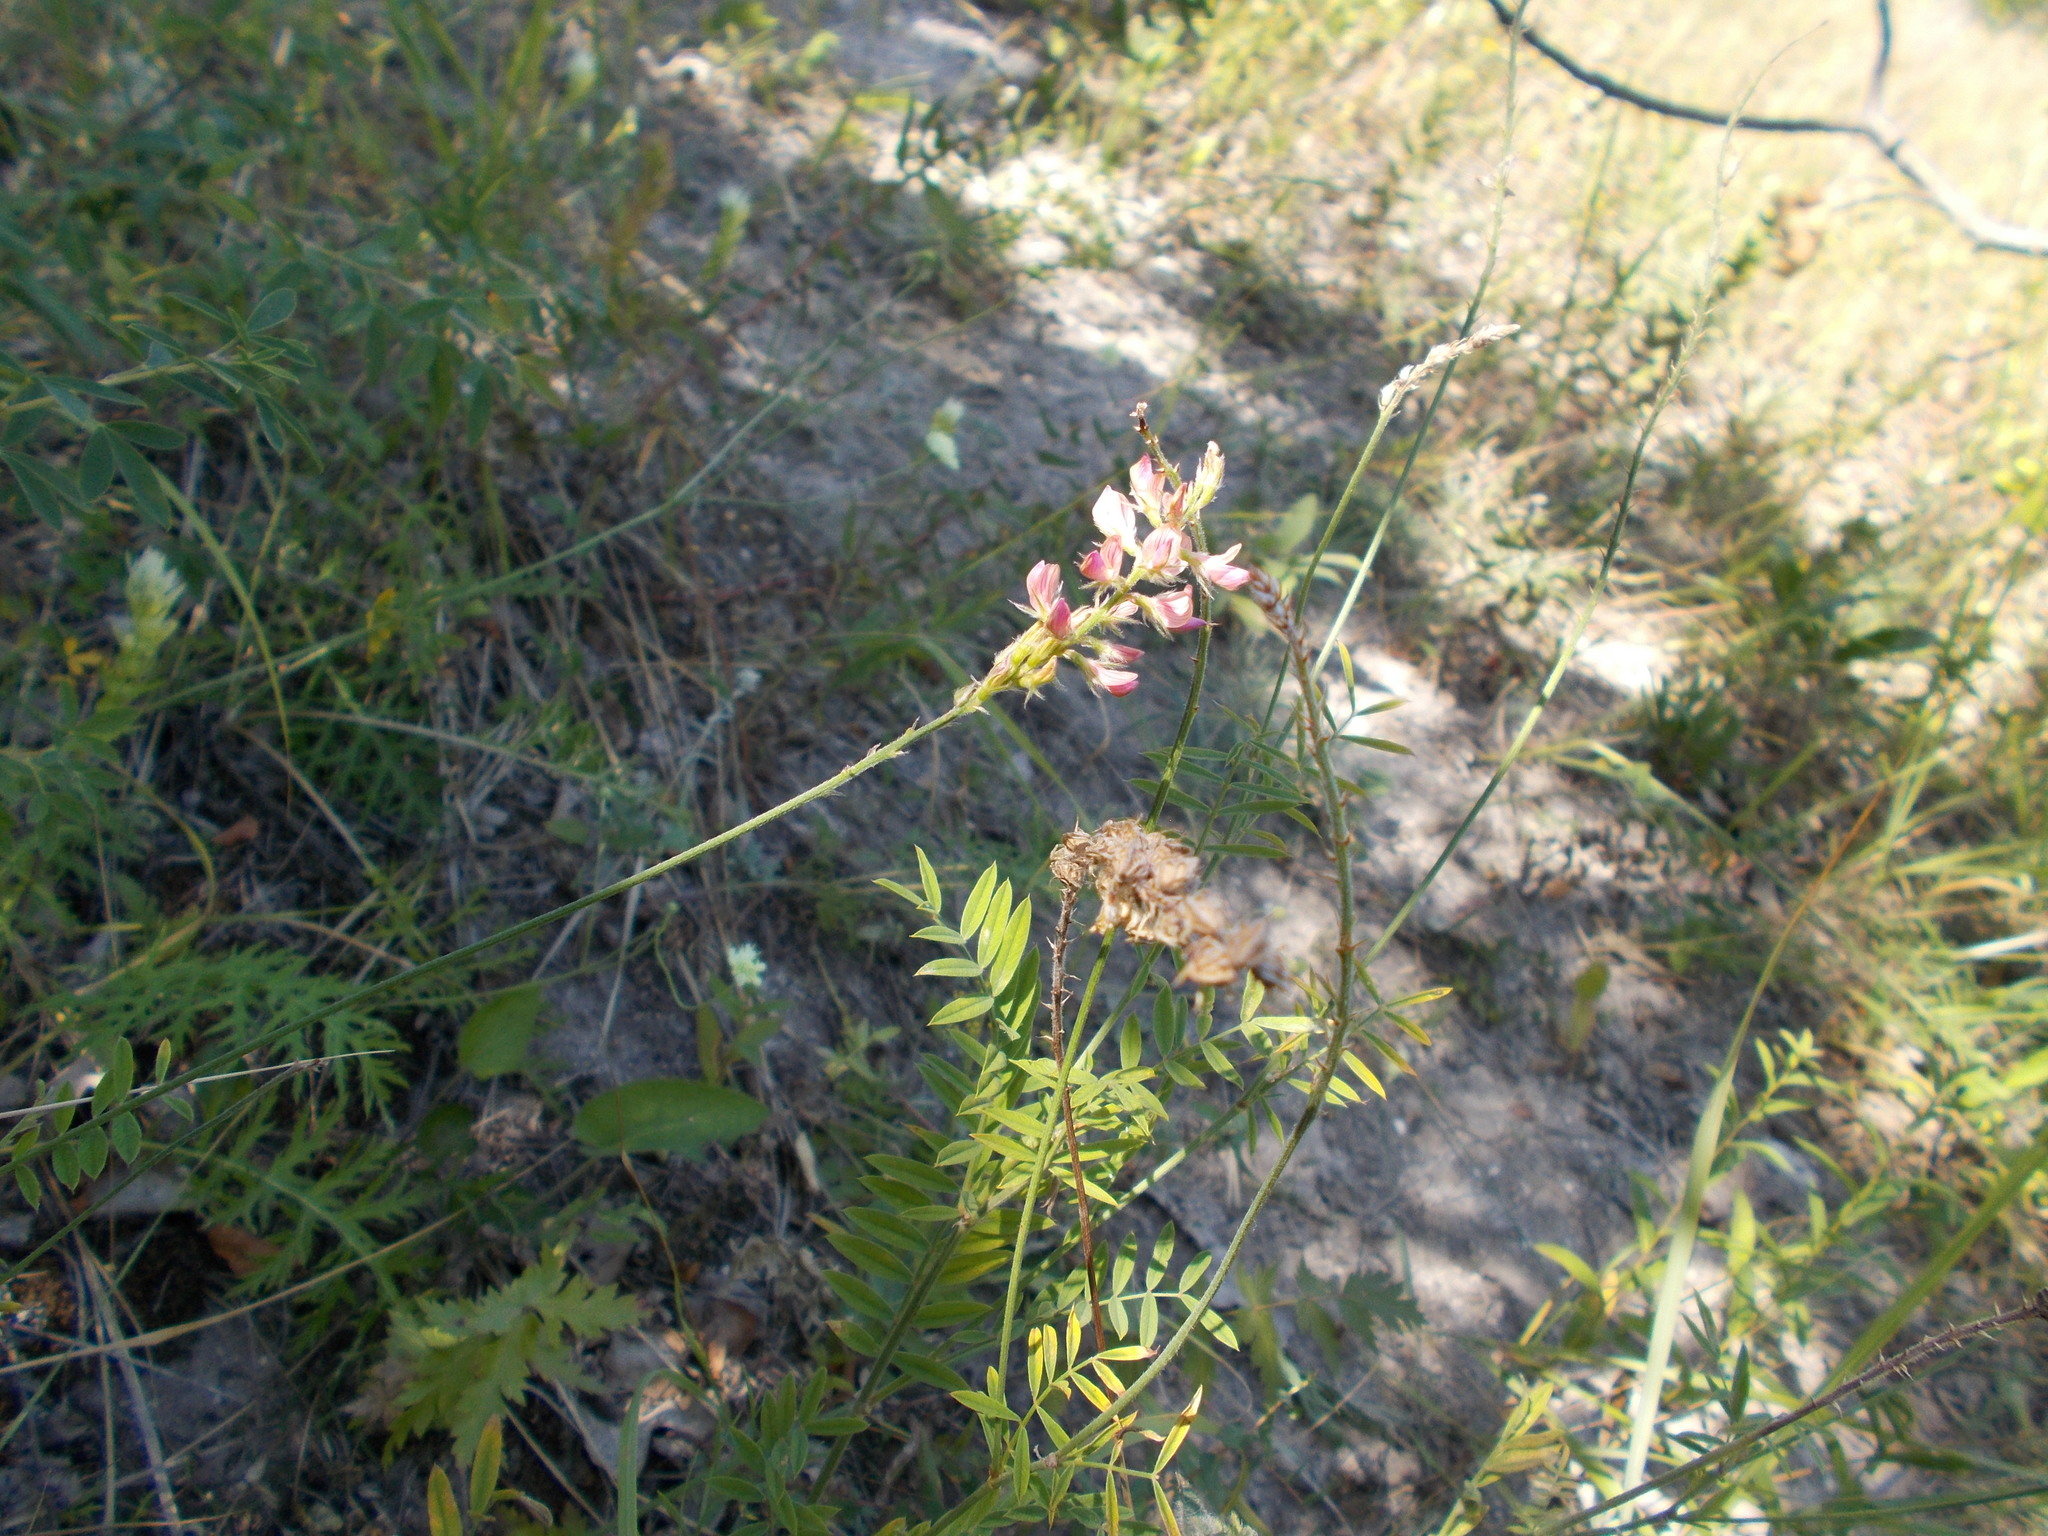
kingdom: Plantae
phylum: Tracheophyta
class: Magnoliopsida
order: Fabales
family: Fabaceae
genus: Onobrychis
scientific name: Onobrychis viciifolia
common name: Sainfoin
